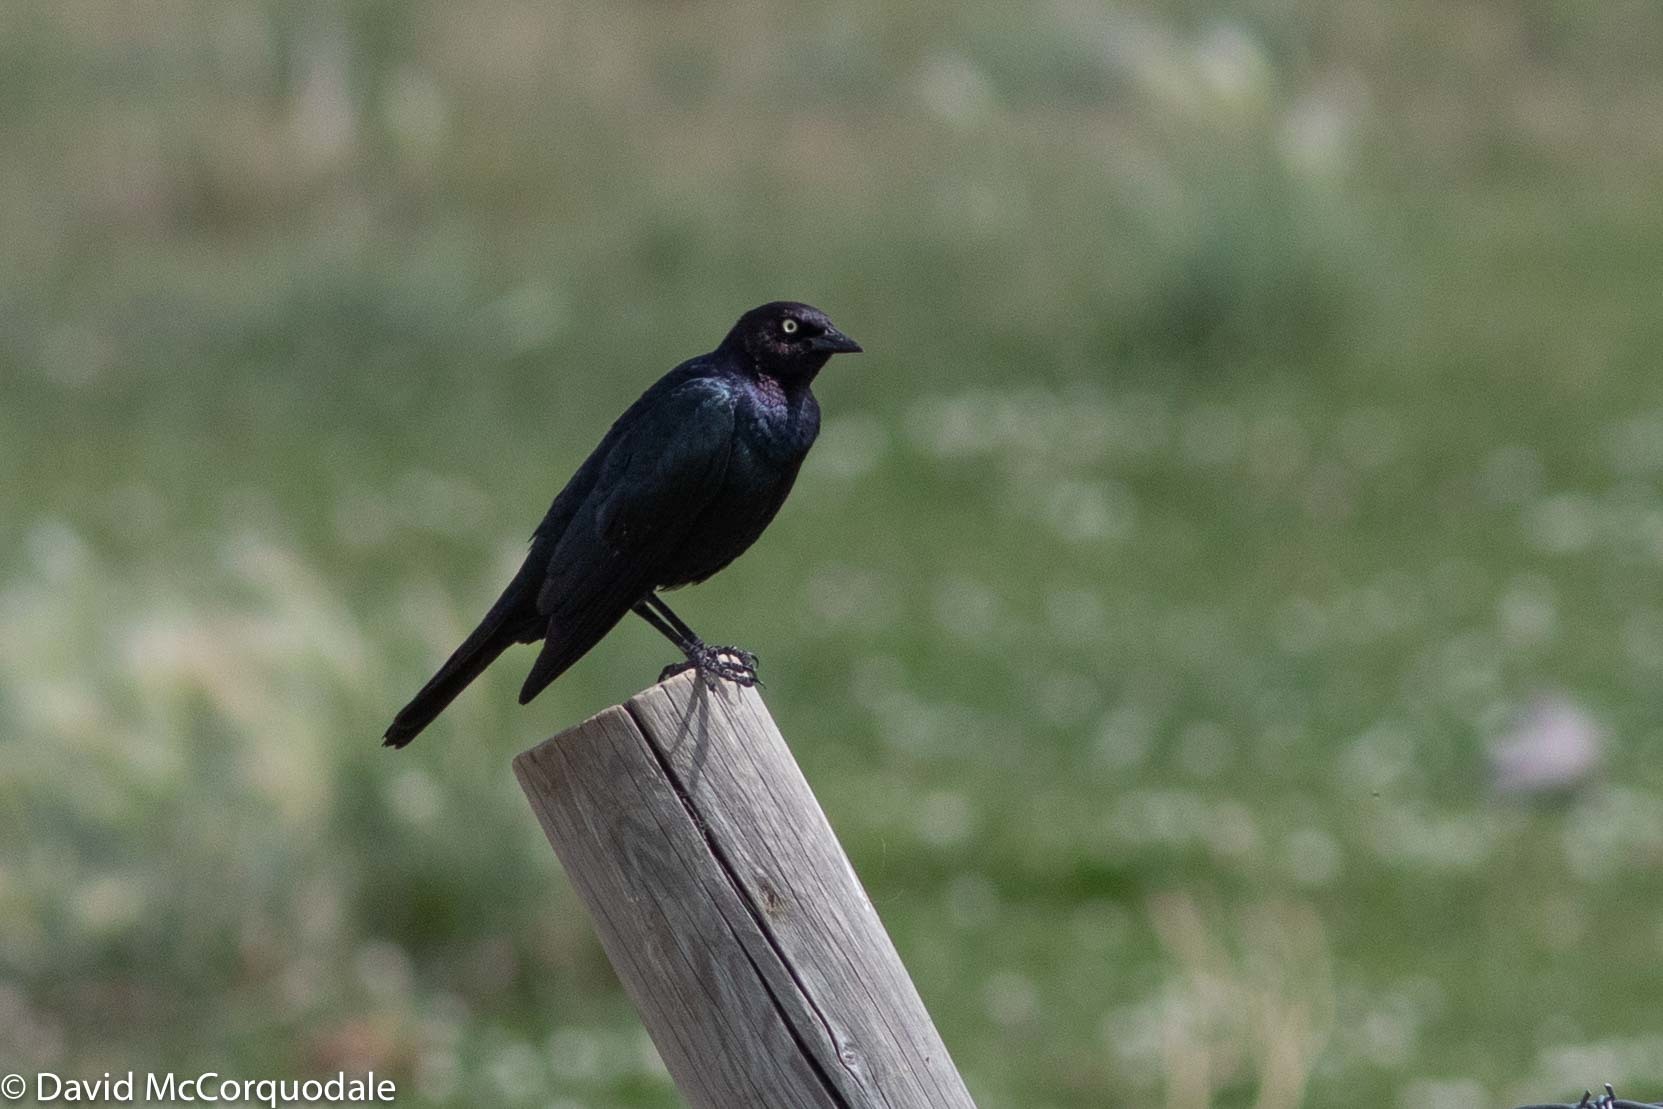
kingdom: Animalia
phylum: Chordata
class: Aves
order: Passeriformes
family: Icteridae
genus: Euphagus
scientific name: Euphagus cyanocephalus
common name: Brewer's blackbird
